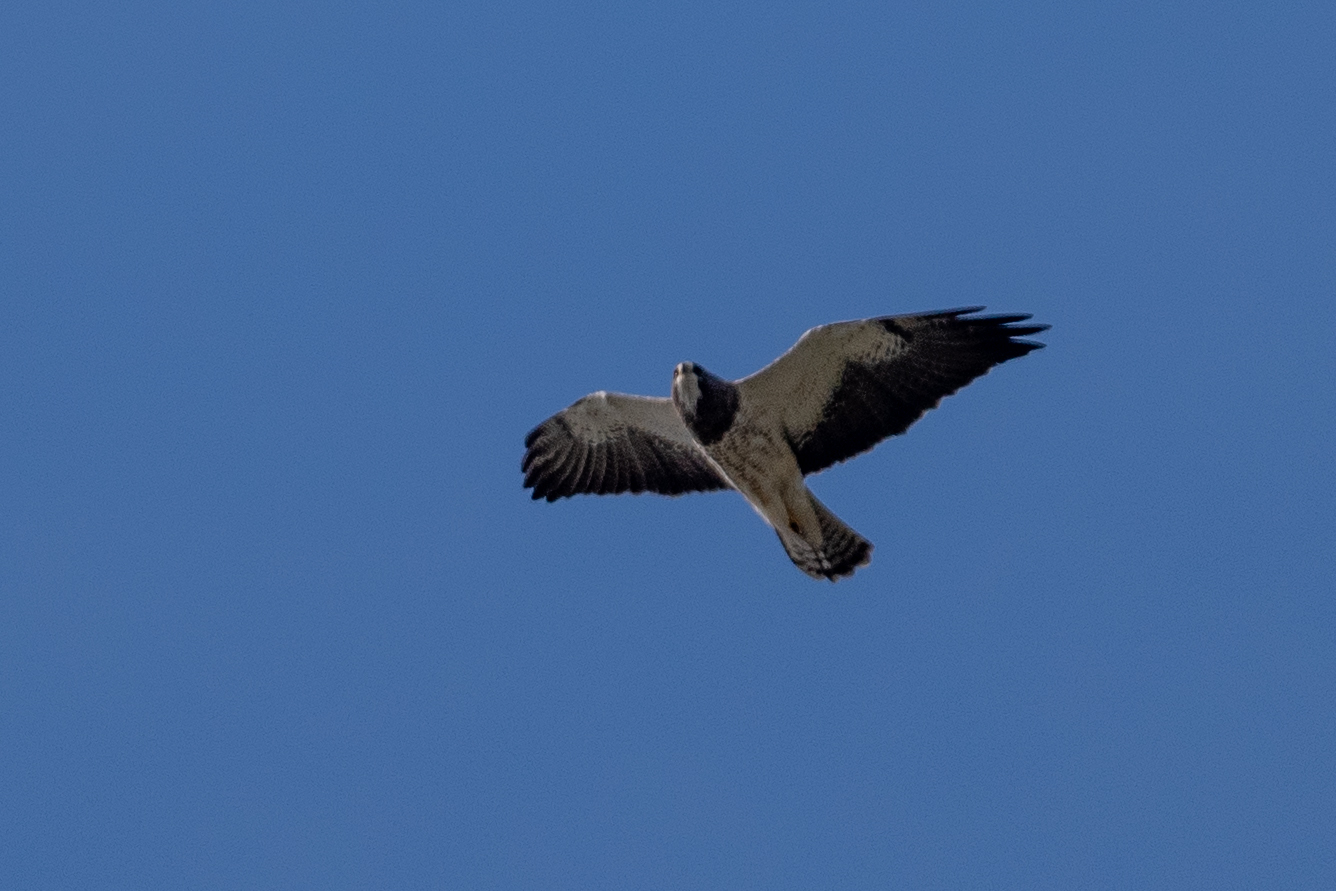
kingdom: Animalia
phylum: Chordata
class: Aves
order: Accipitriformes
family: Accipitridae
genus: Buteo
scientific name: Buteo swainsoni
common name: Swainson's hawk
